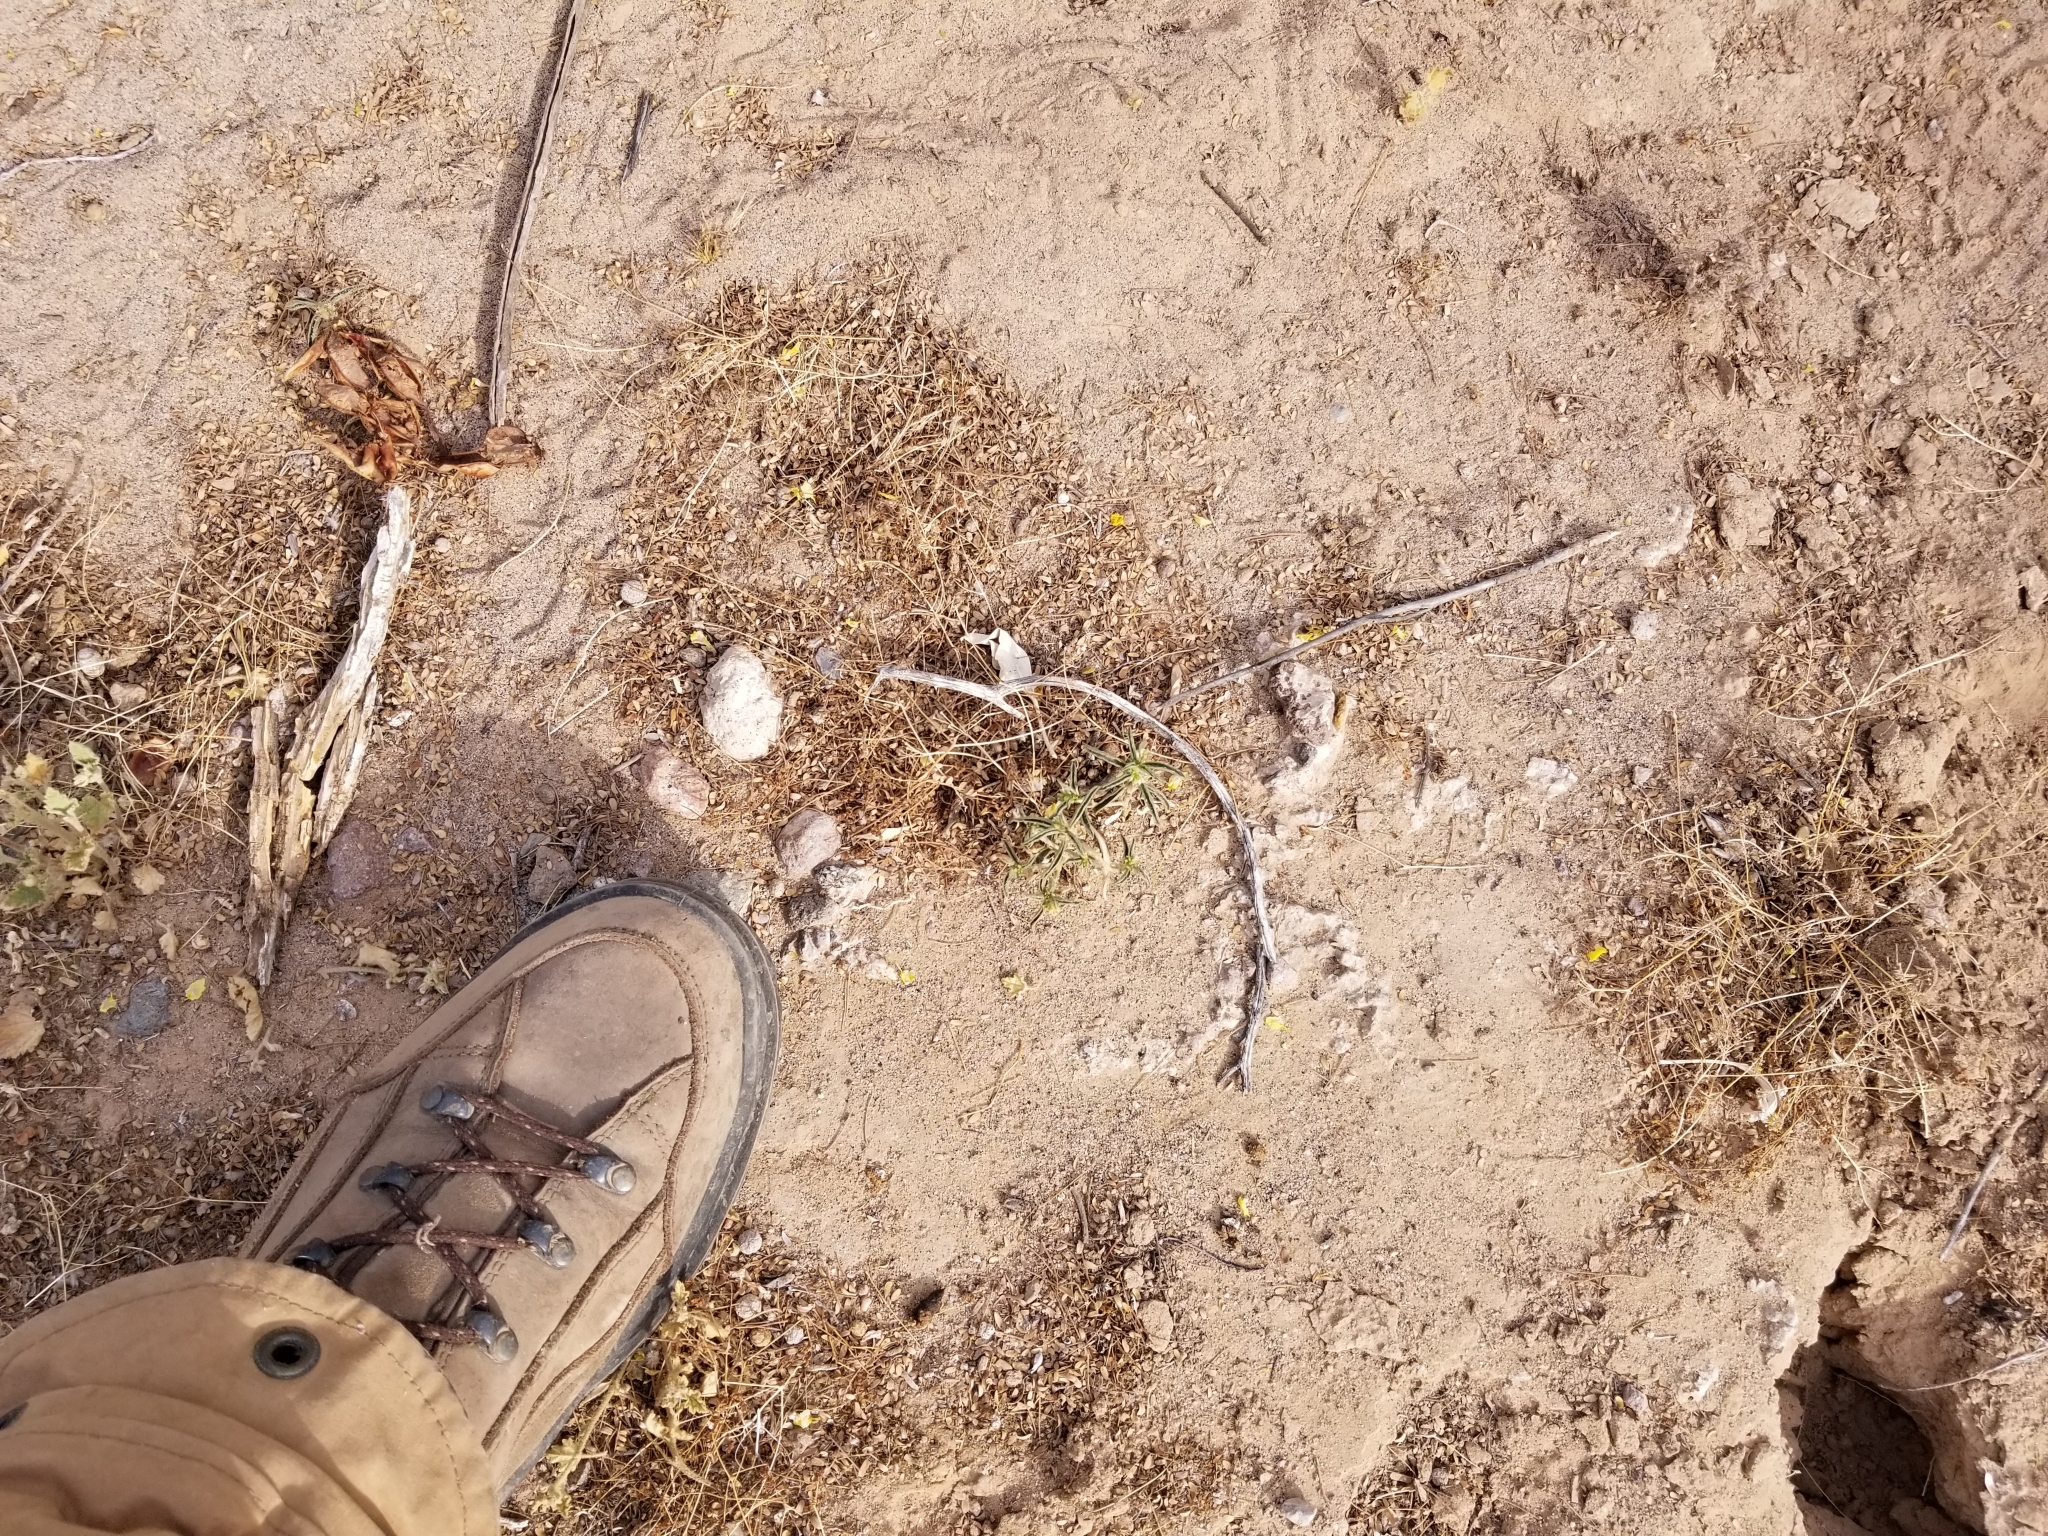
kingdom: Plantae
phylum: Tracheophyta
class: Magnoliopsida
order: Malpighiales
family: Euphorbiaceae
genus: Ditaxis
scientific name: Ditaxis serrata
